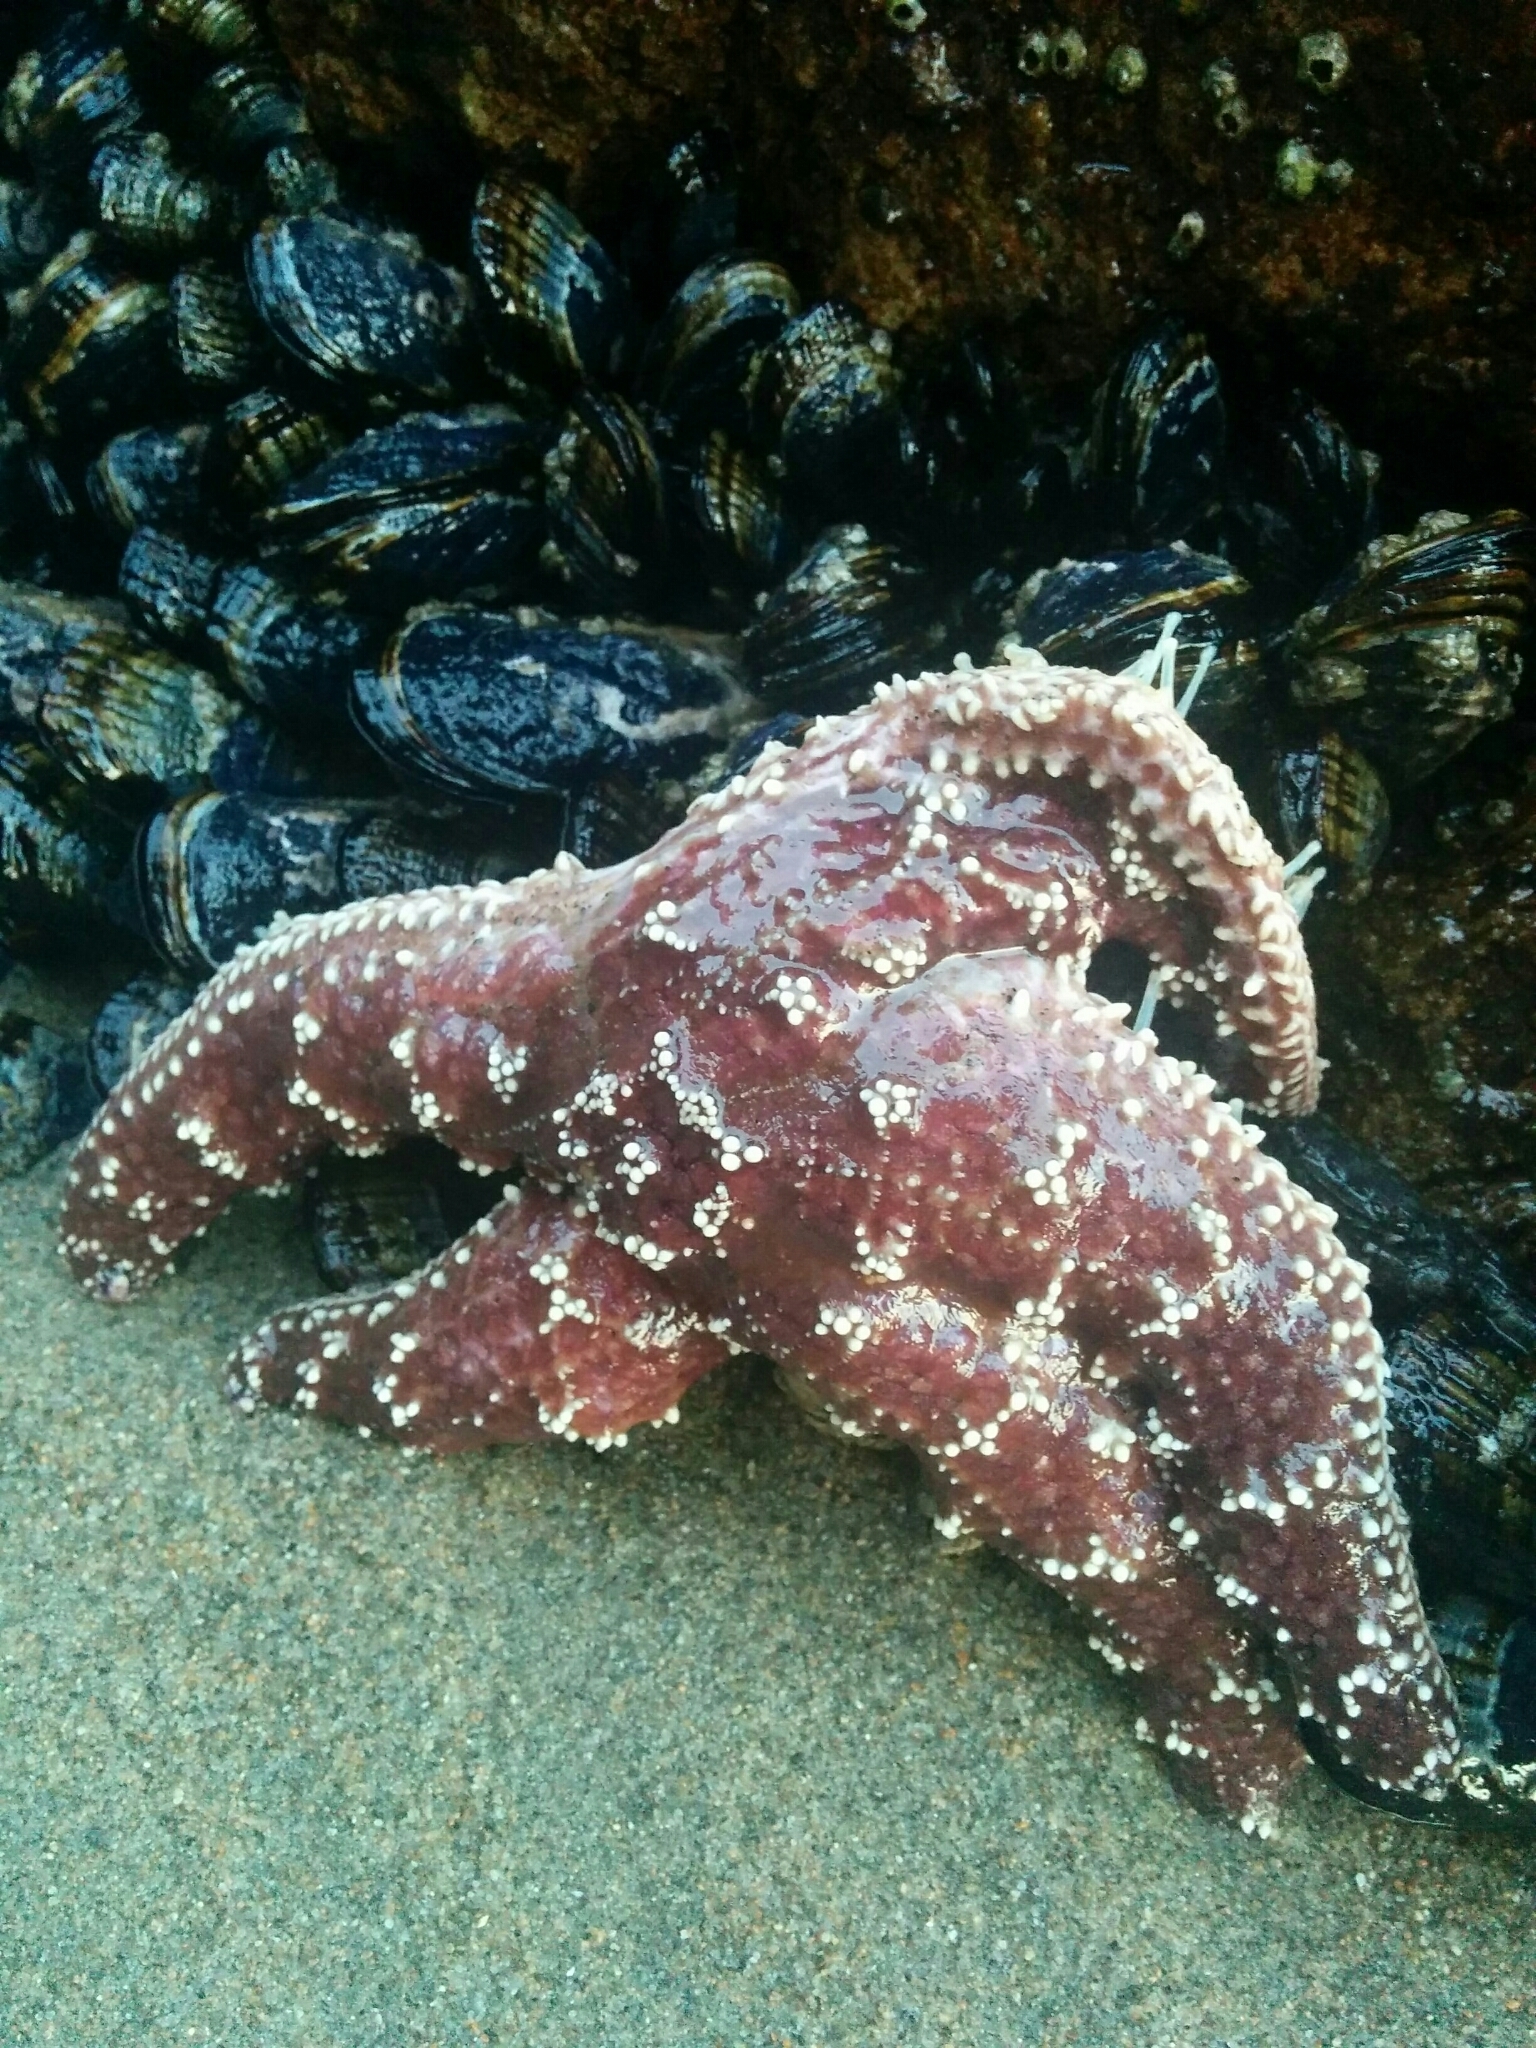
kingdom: Animalia
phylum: Echinodermata
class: Asteroidea
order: Forcipulatida
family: Asteriidae
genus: Pisaster
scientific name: Pisaster ochraceus
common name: Ochre stars
